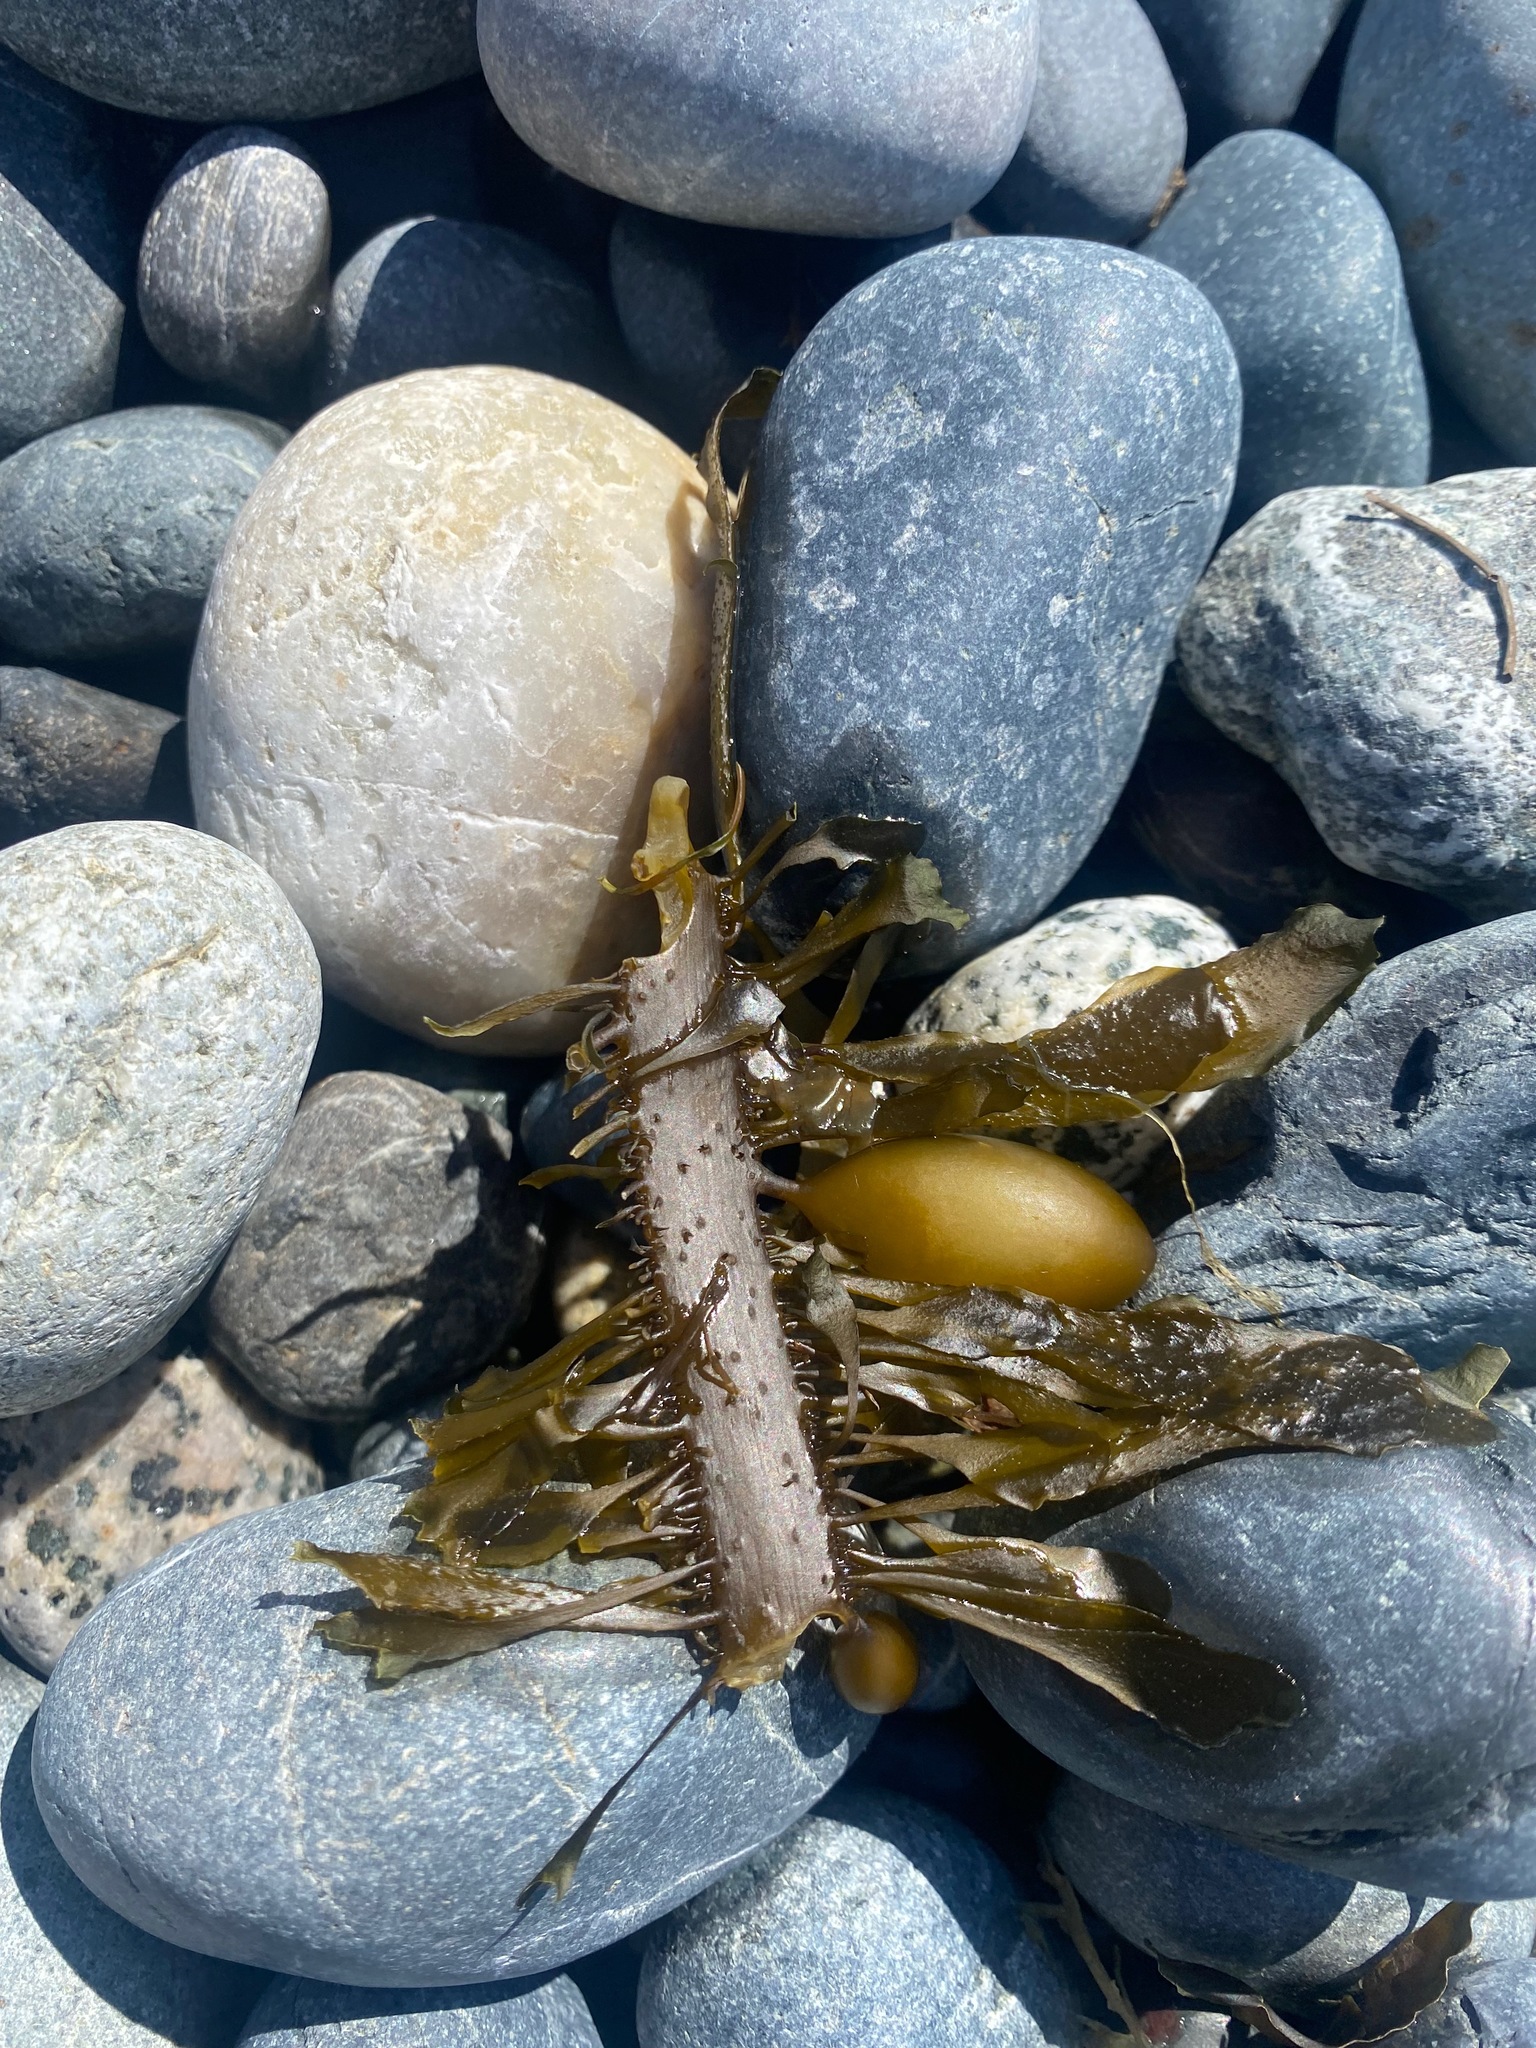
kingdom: Chromista
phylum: Ochrophyta
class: Phaeophyceae
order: Laminariales
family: Lessoniaceae
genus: Egregia
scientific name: Egregia menziesii
